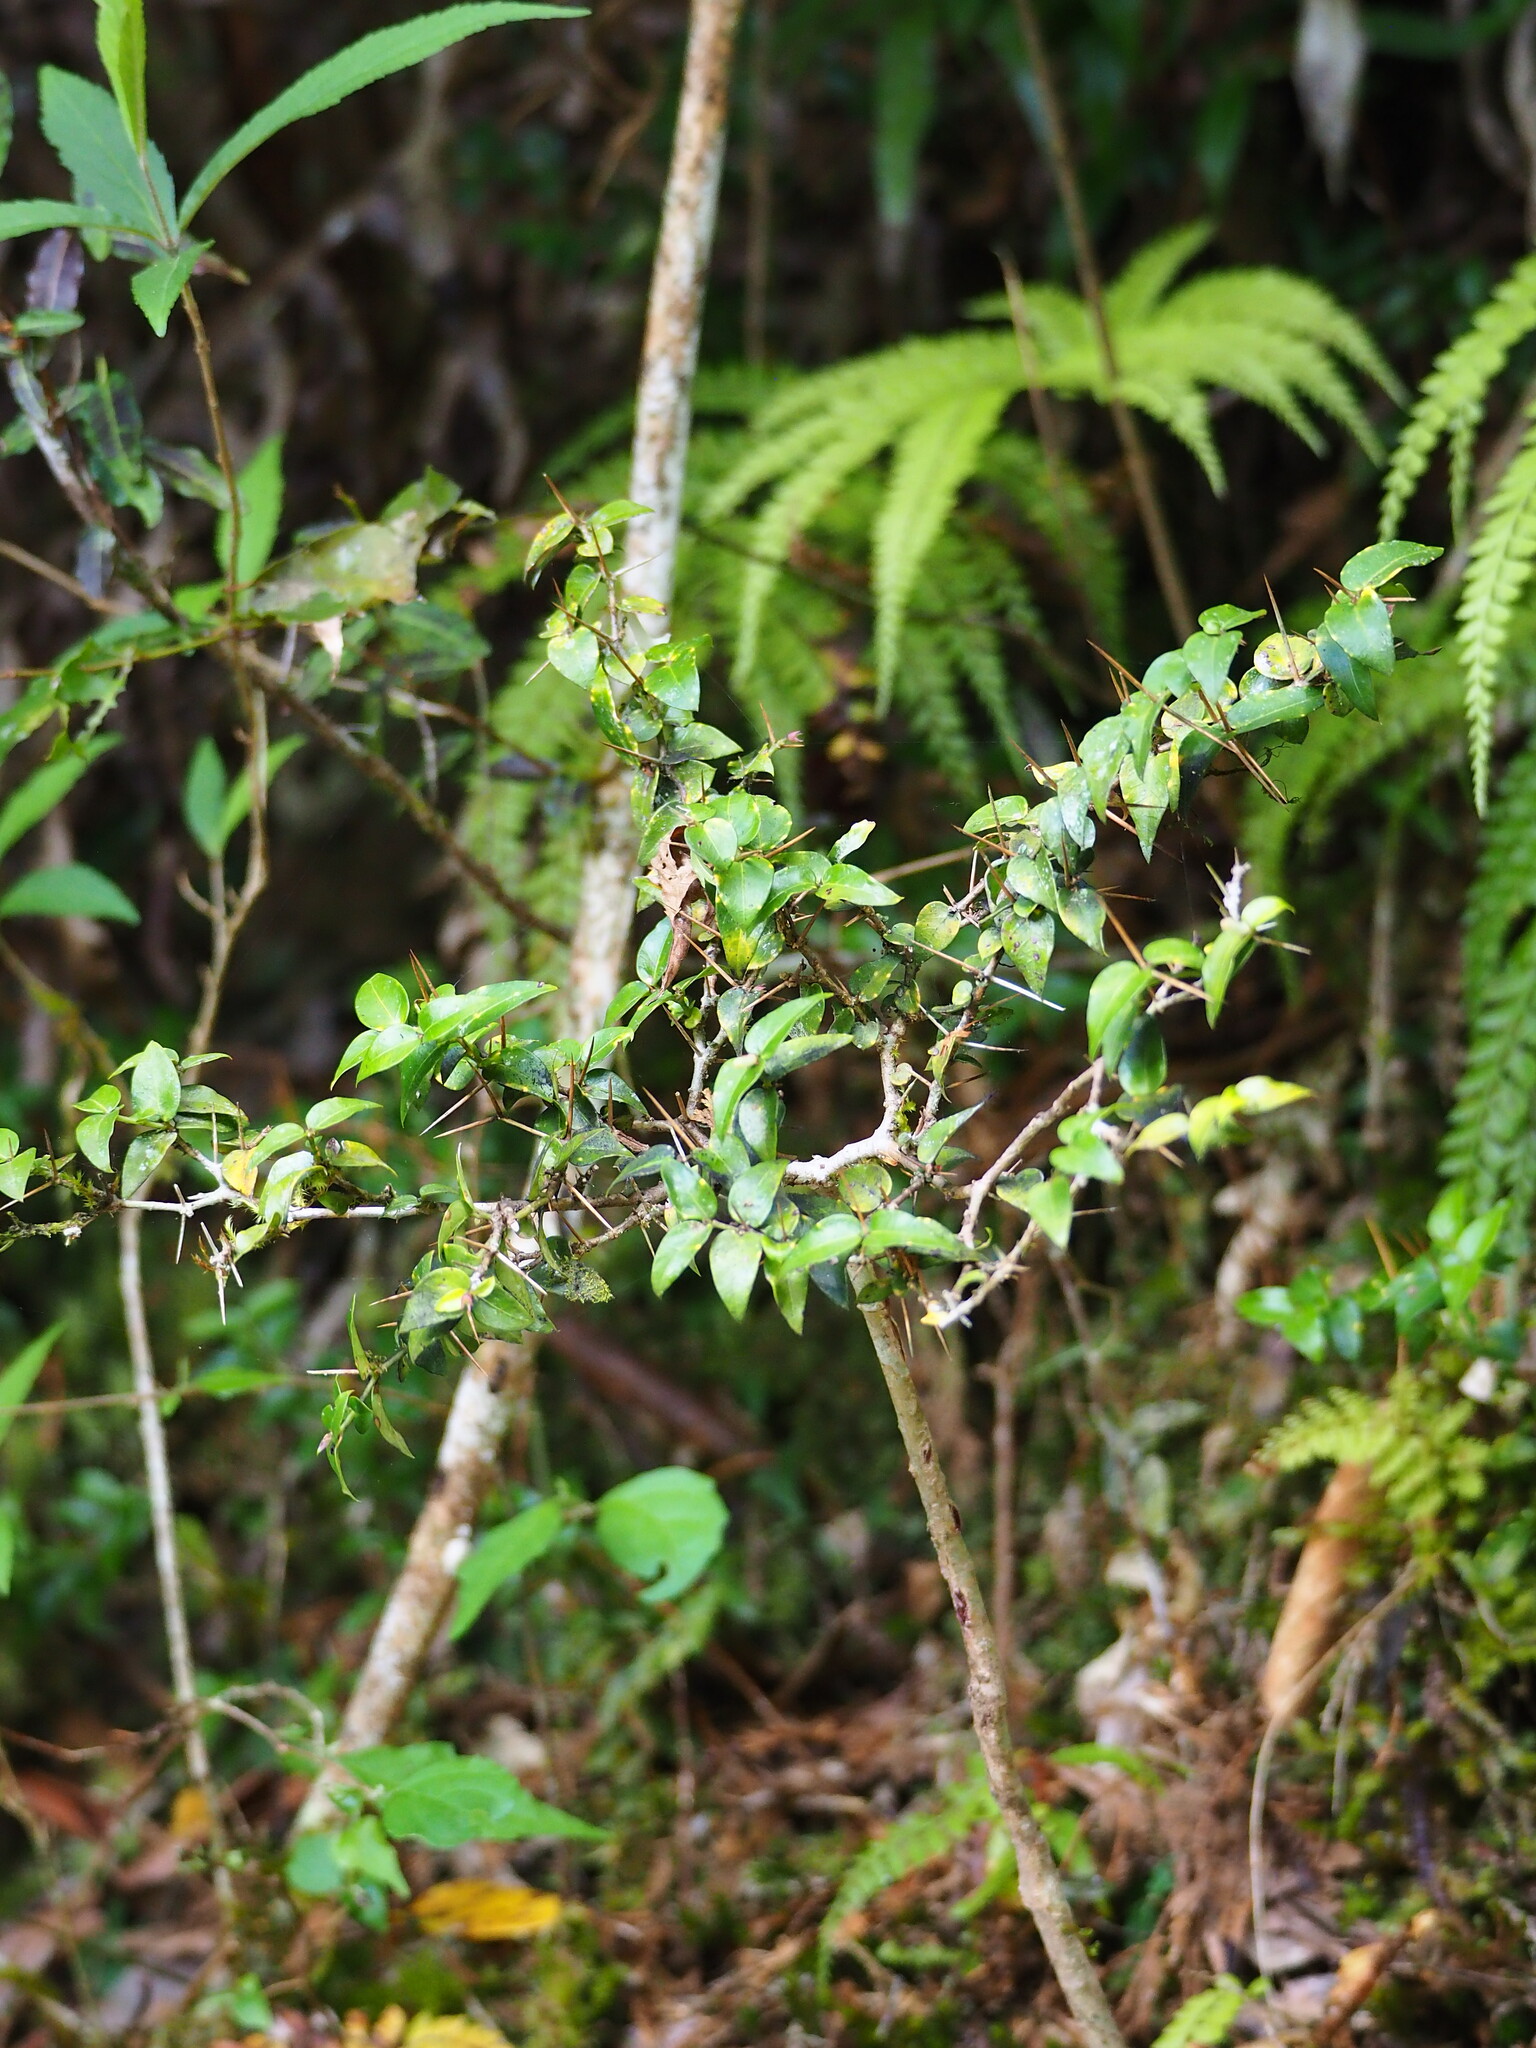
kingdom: Plantae
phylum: Tracheophyta
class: Magnoliopsida
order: Gentianales
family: Rubiaceae
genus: Damnacanthus
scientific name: Damnacanthus indicus
